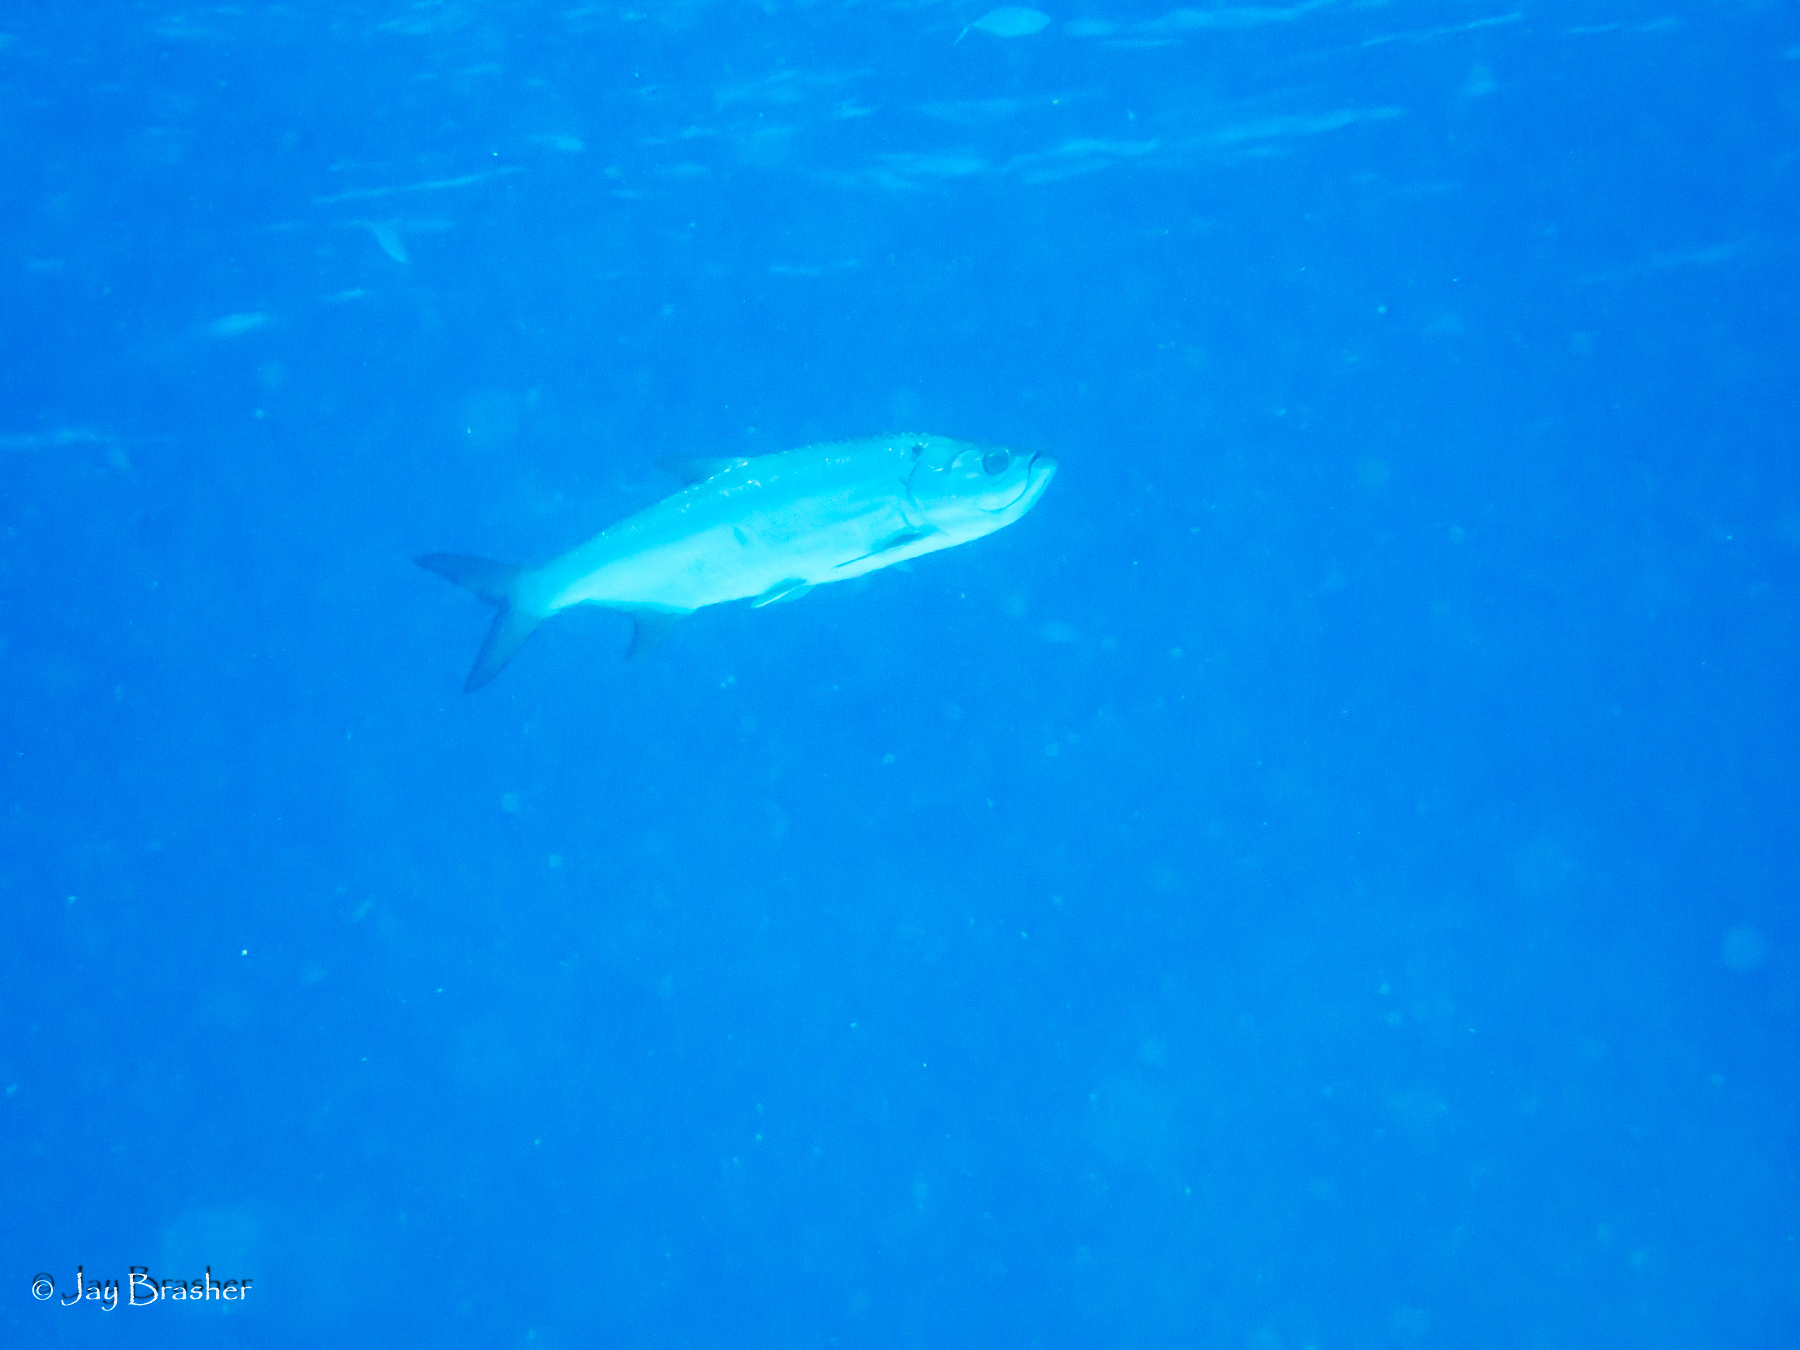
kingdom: Animalia
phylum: Chordata
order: Elopiformes
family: Megalopidae
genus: Megalops
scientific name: Megalops atlanticus
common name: Tarpon
